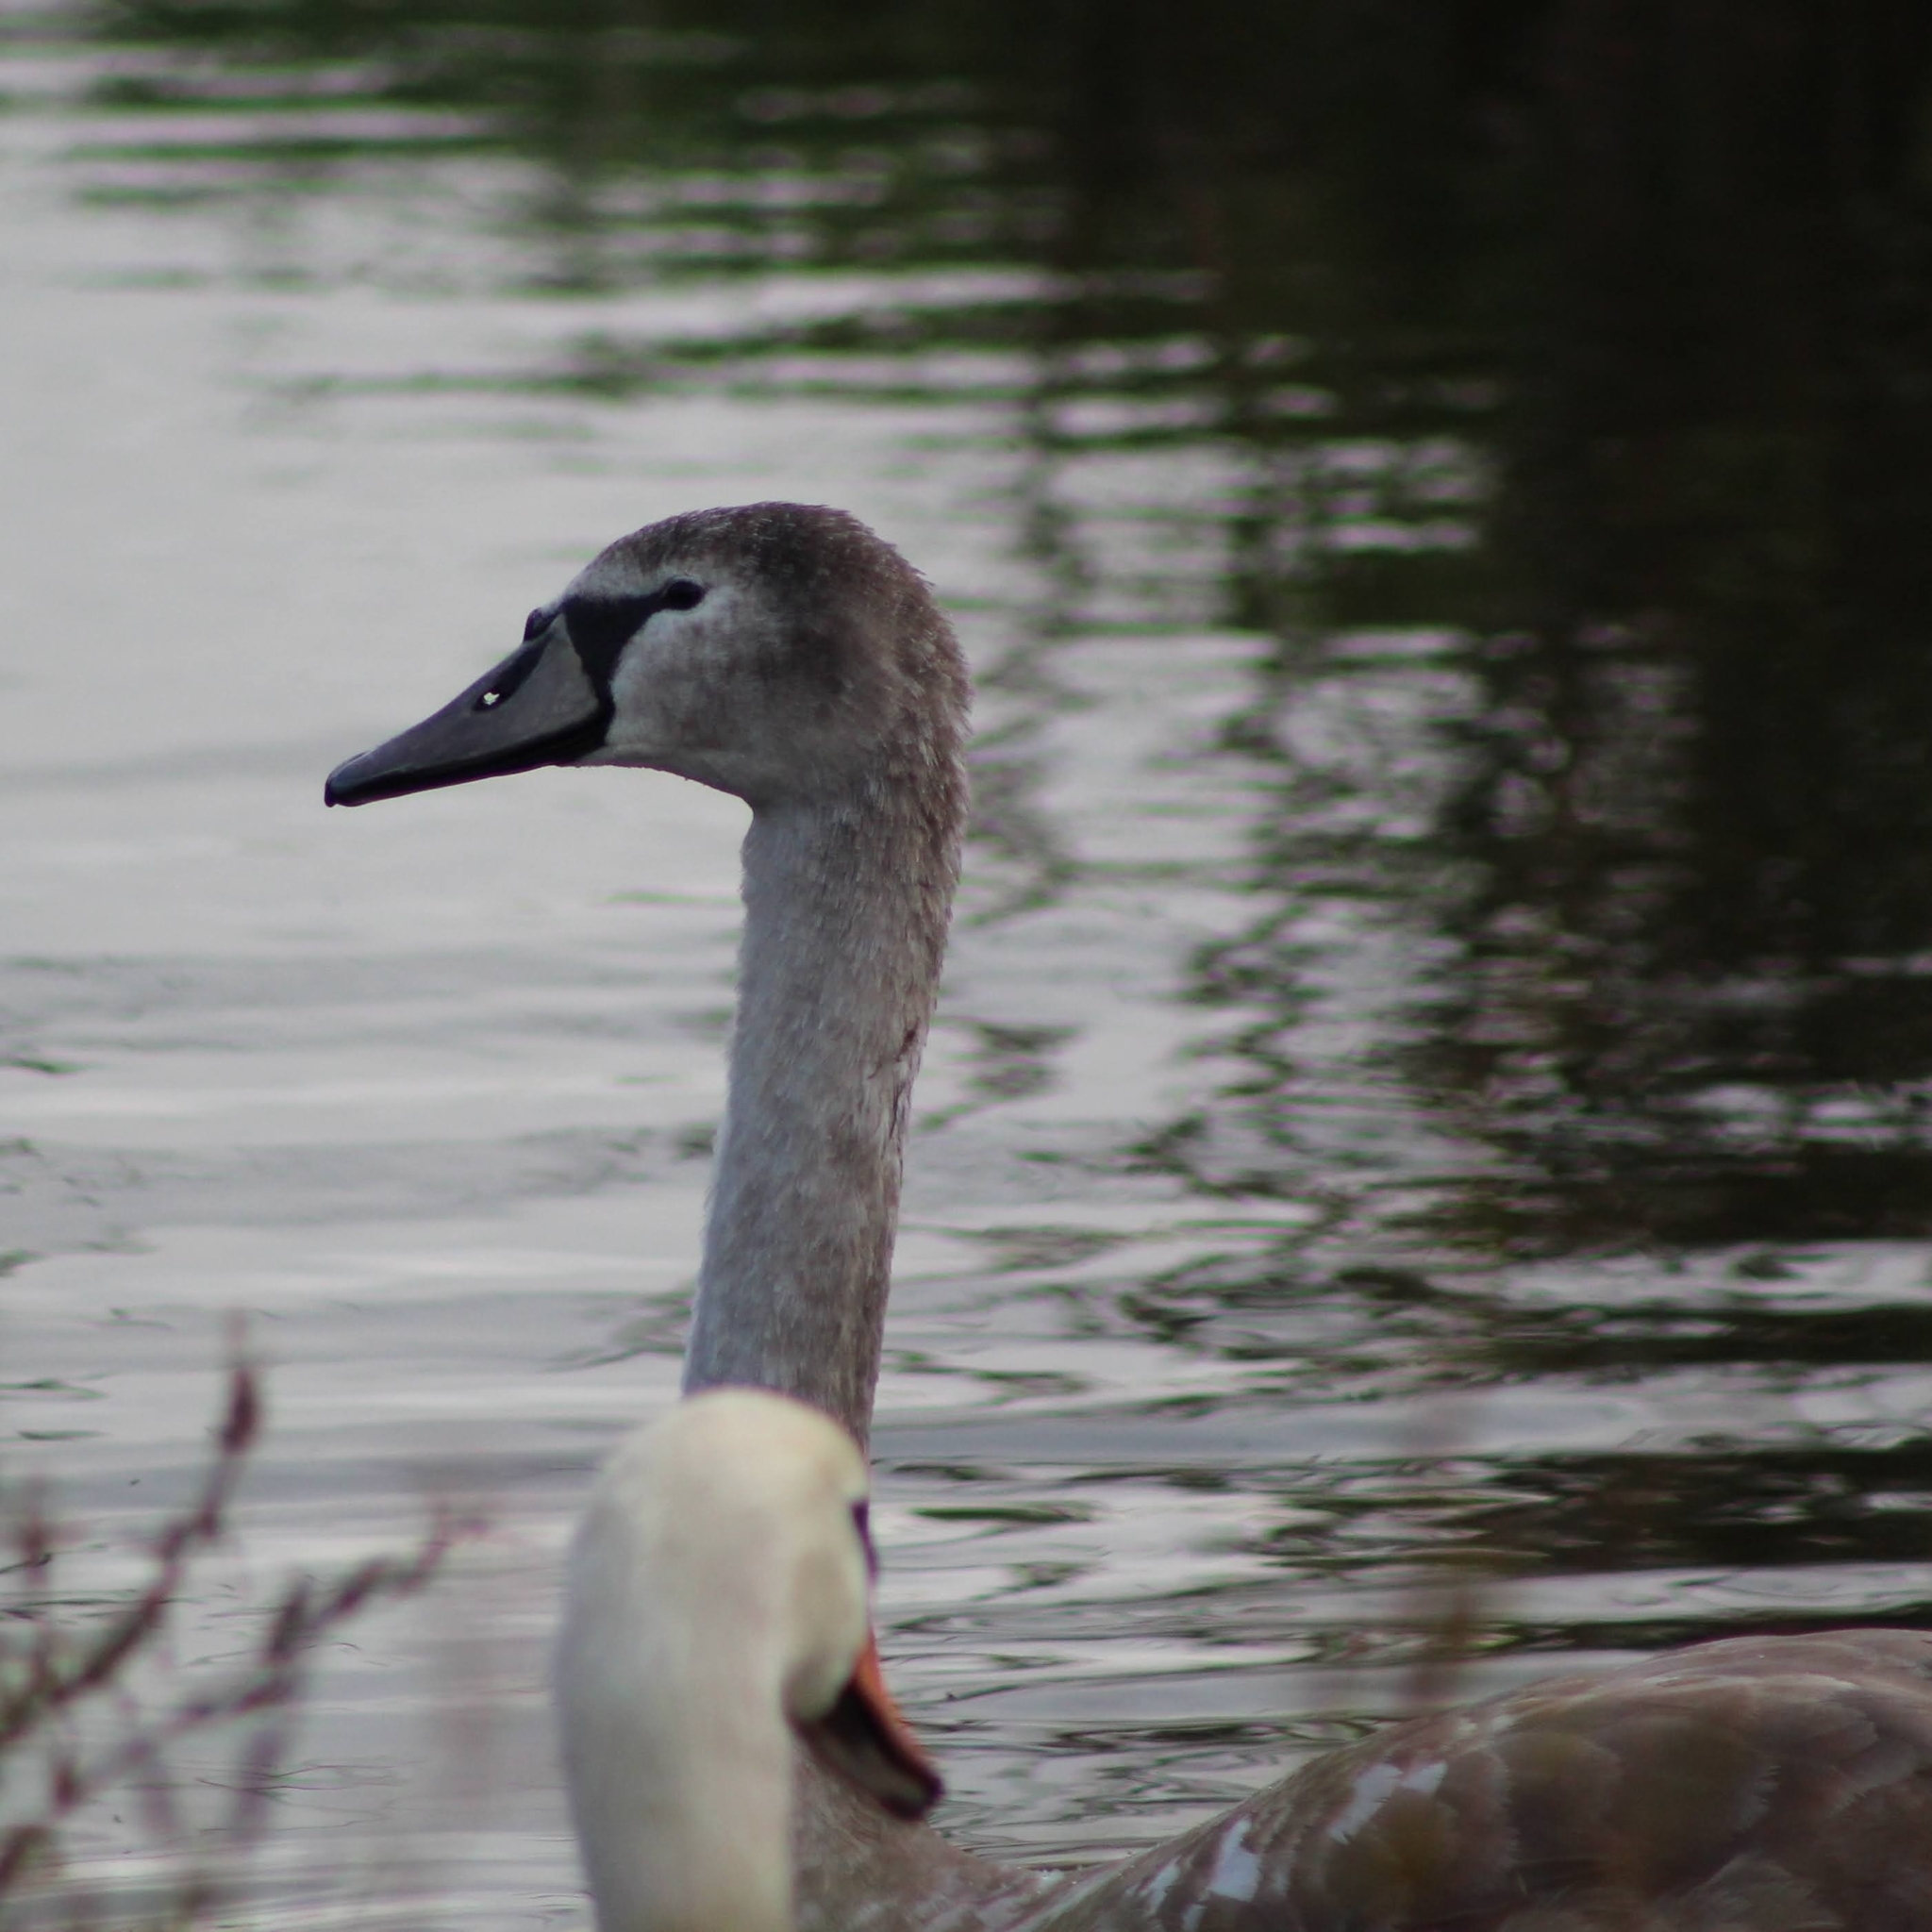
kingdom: Animalia
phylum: Chordata
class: Aves
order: Anseriformes
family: Anatidae
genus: Cygnus
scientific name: Cygnus olor
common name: Mute swan
